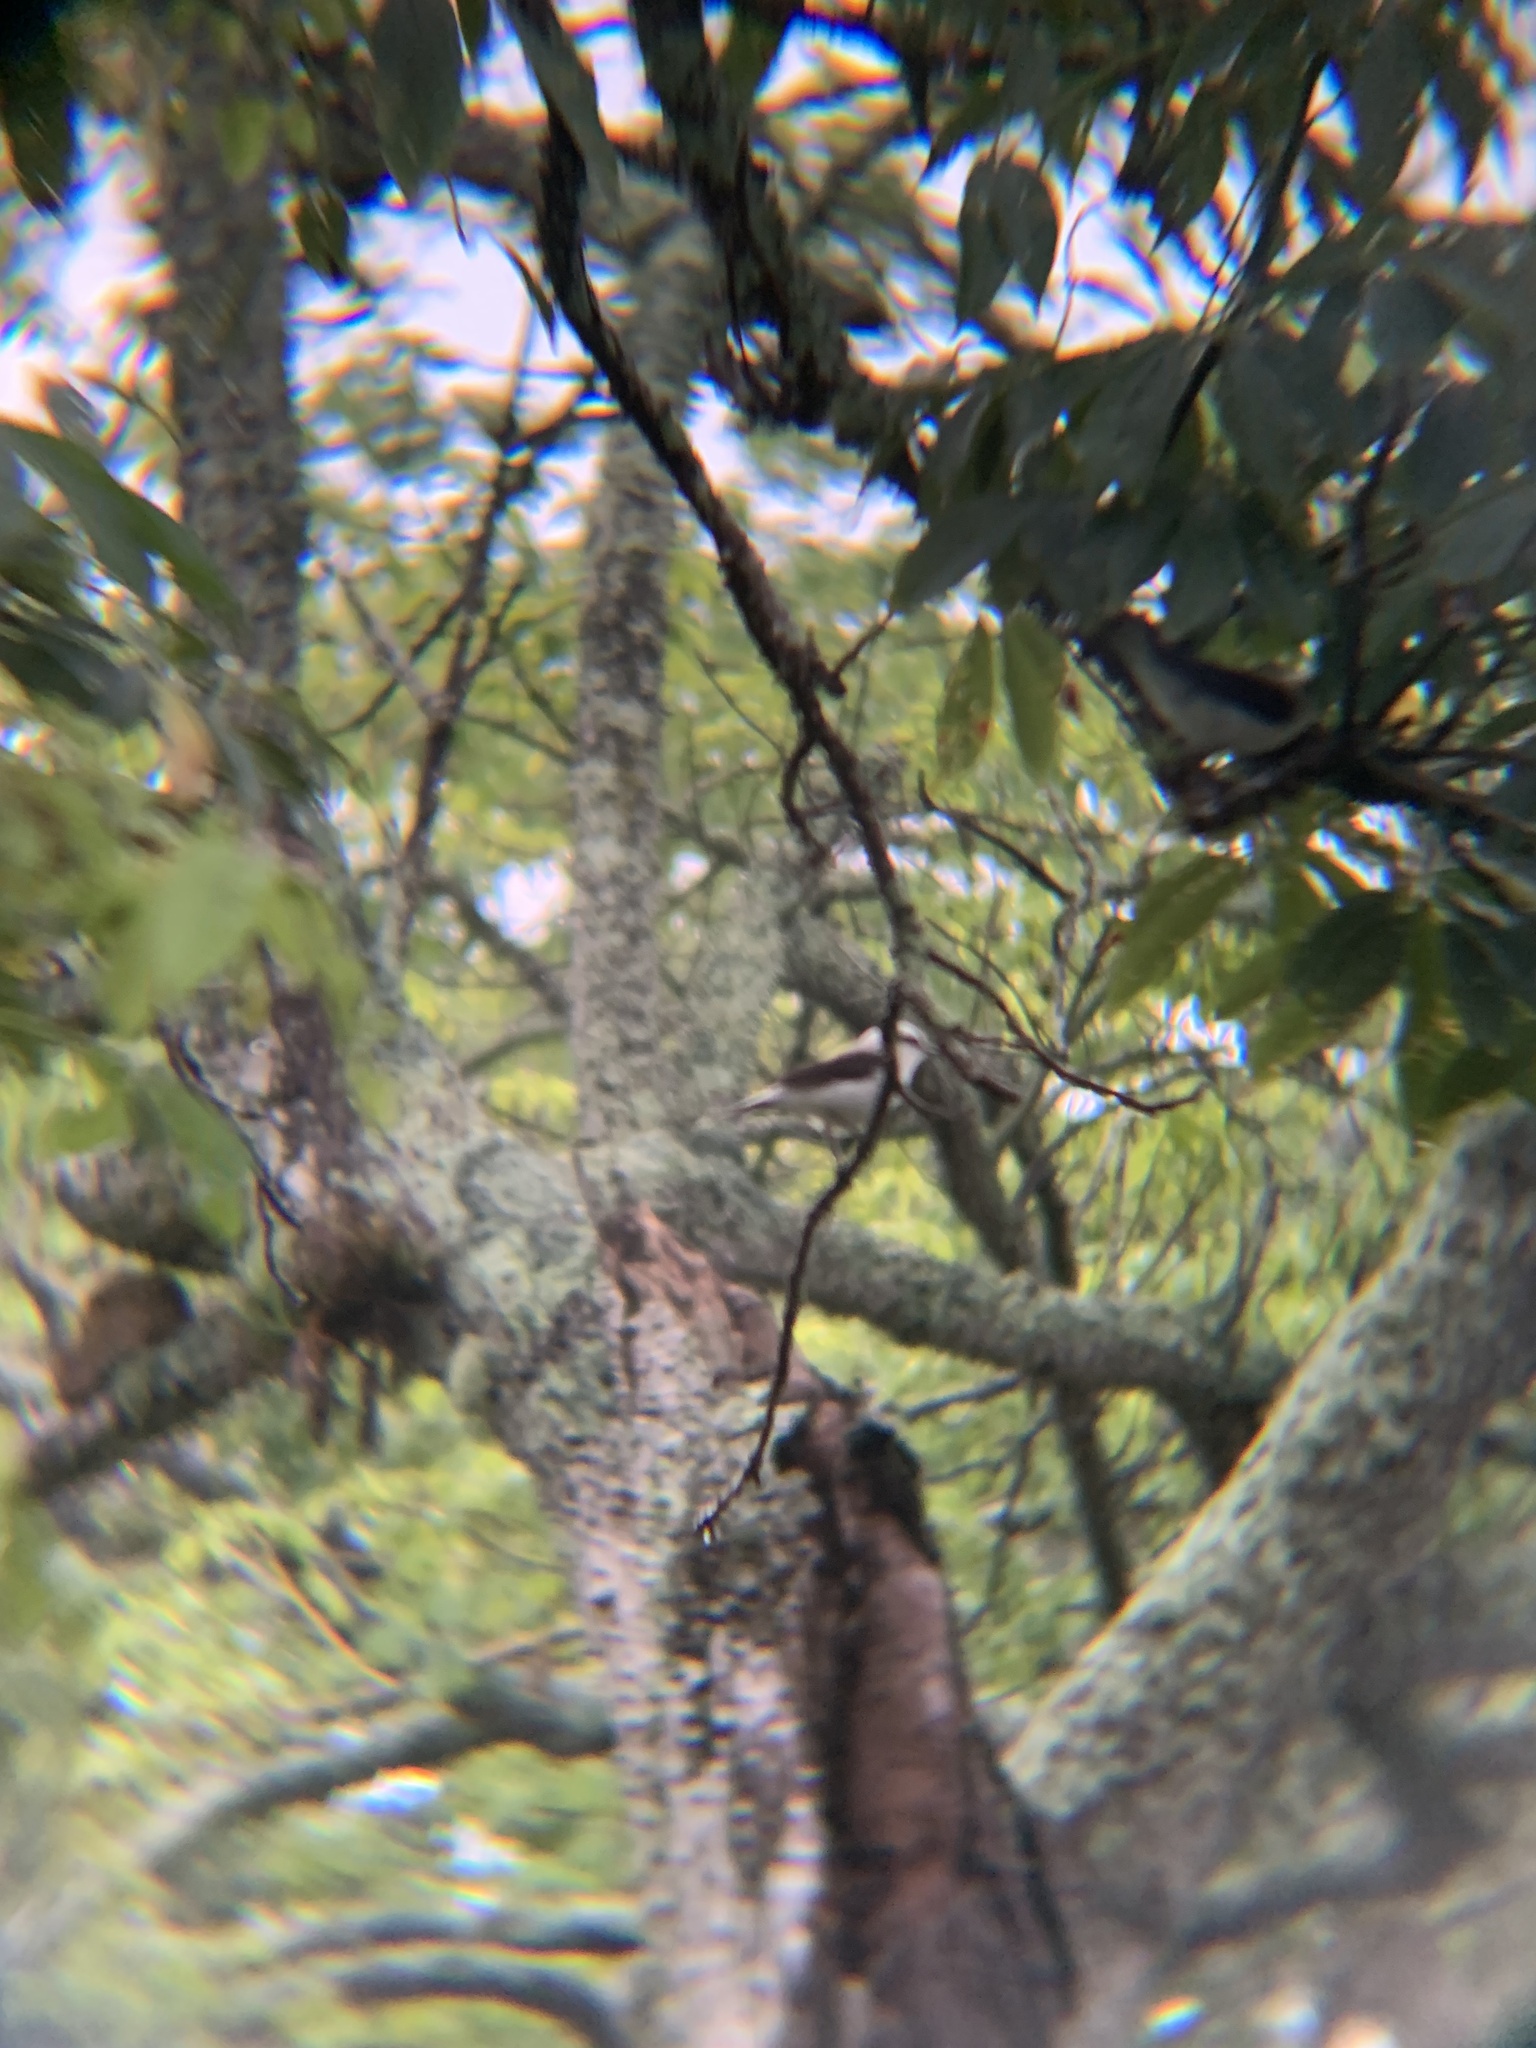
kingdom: Animalia
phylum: Chordata
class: Aves
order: Passeriformes
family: Tyrannidae
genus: Fluvicola
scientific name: Fluvicola nengeta
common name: Masked water tyrant
